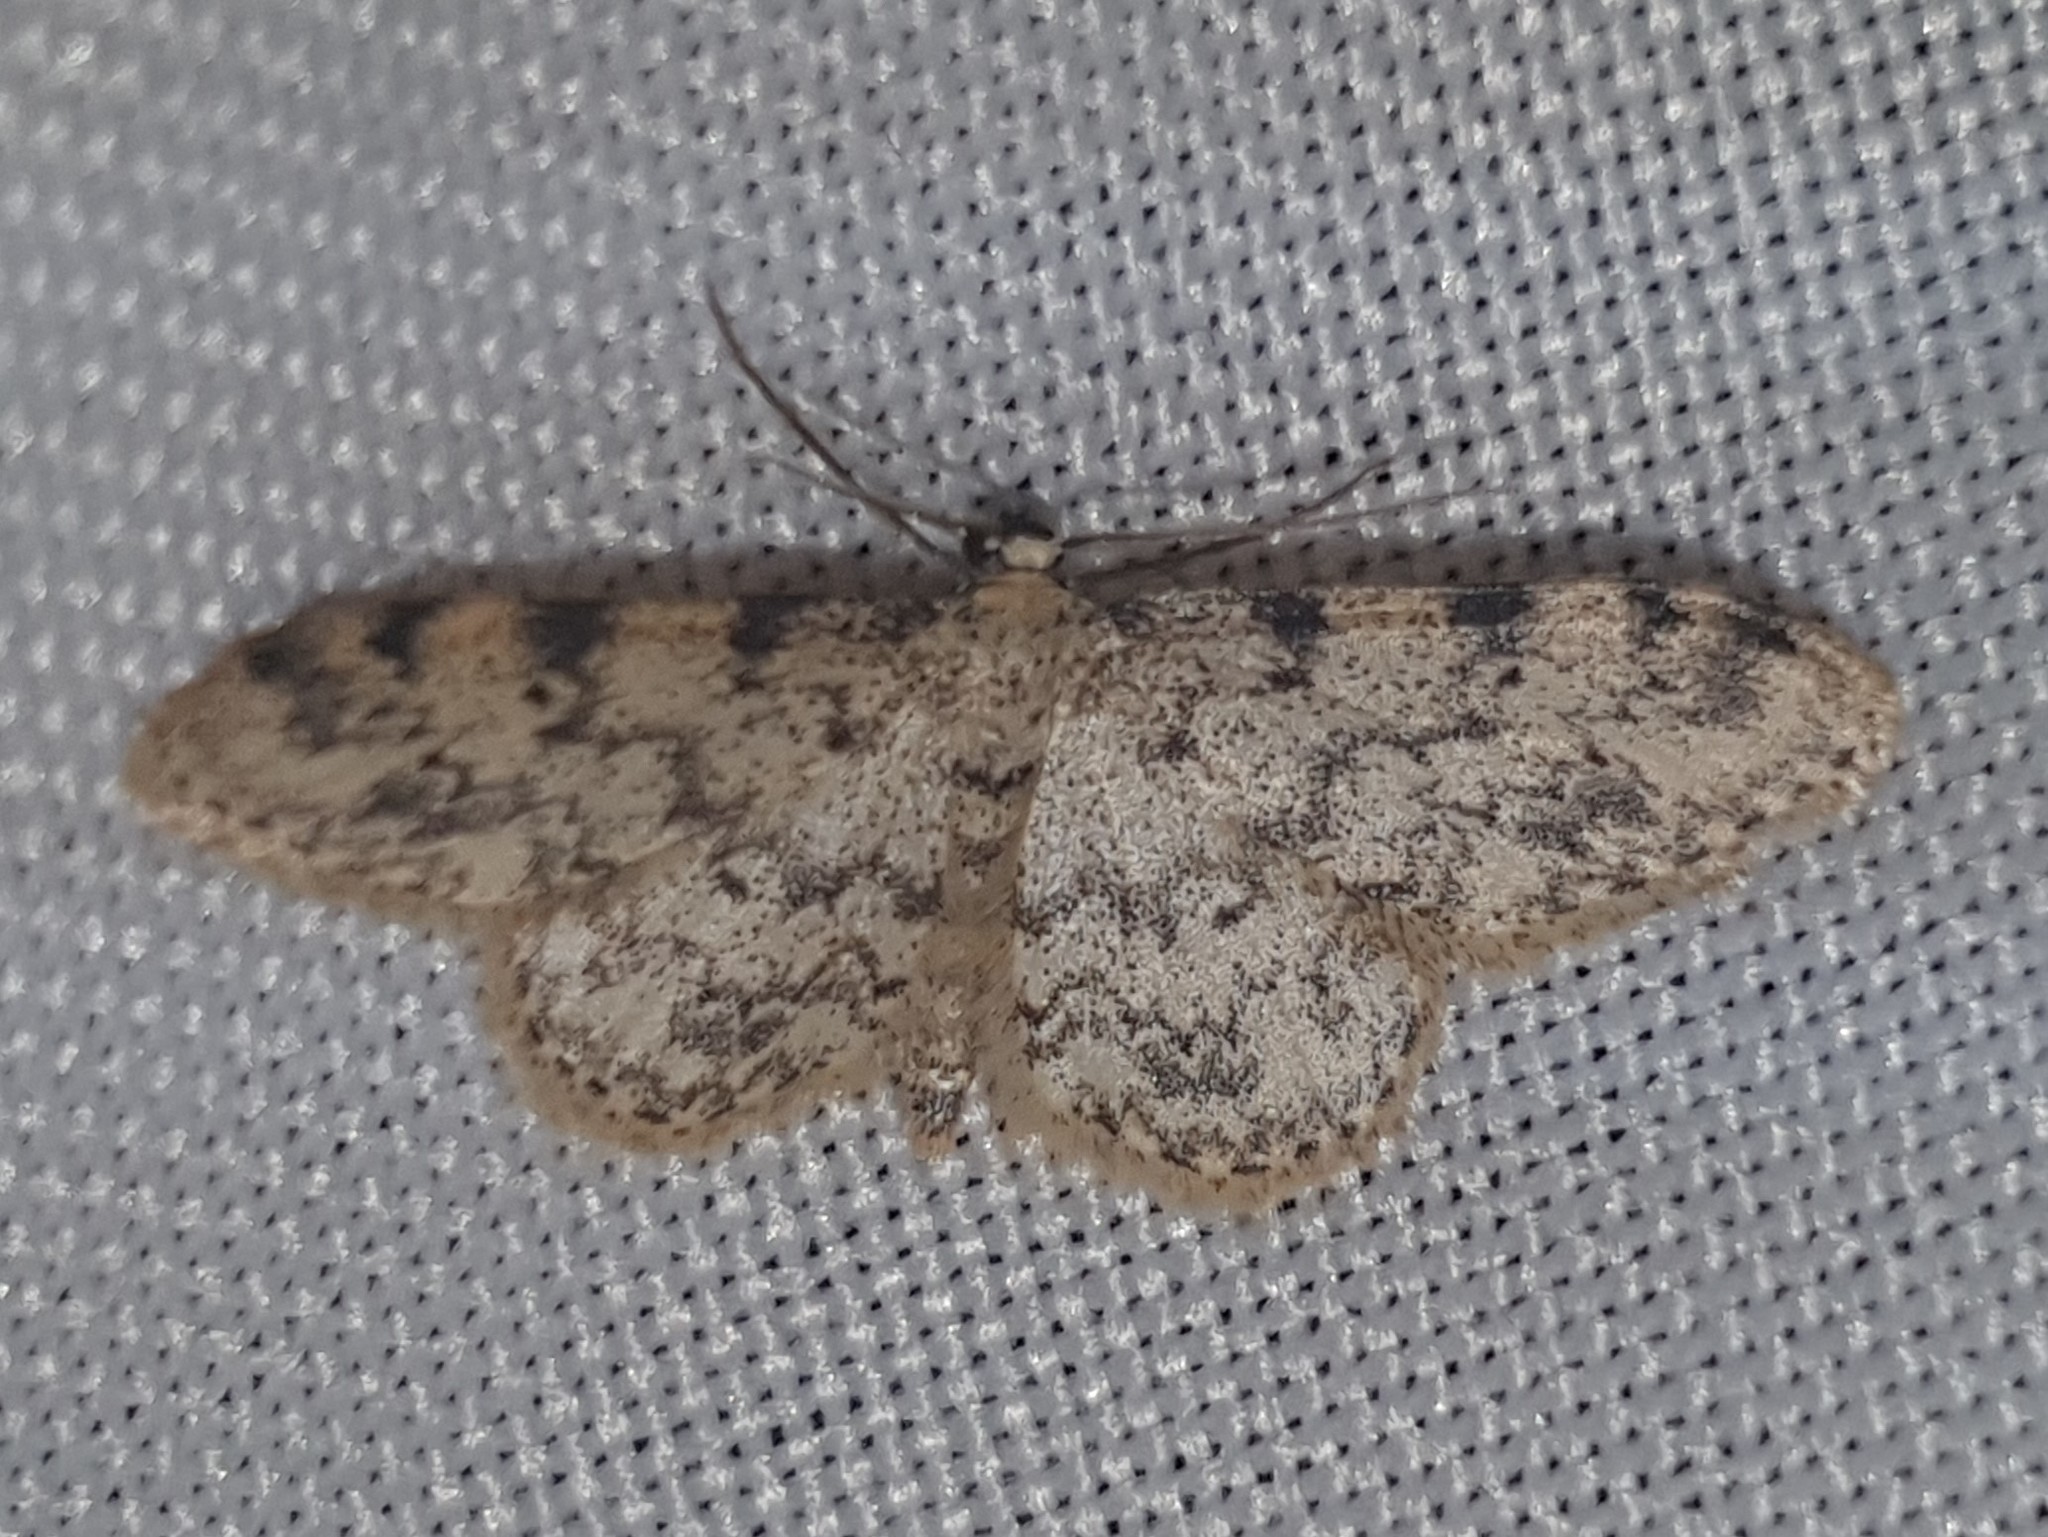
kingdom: Animalia
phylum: Arthropoda
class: Insecta
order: Lepidoptera
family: Geometridae
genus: Idaea
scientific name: Idaea contiguaria
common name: Weaver's wave
